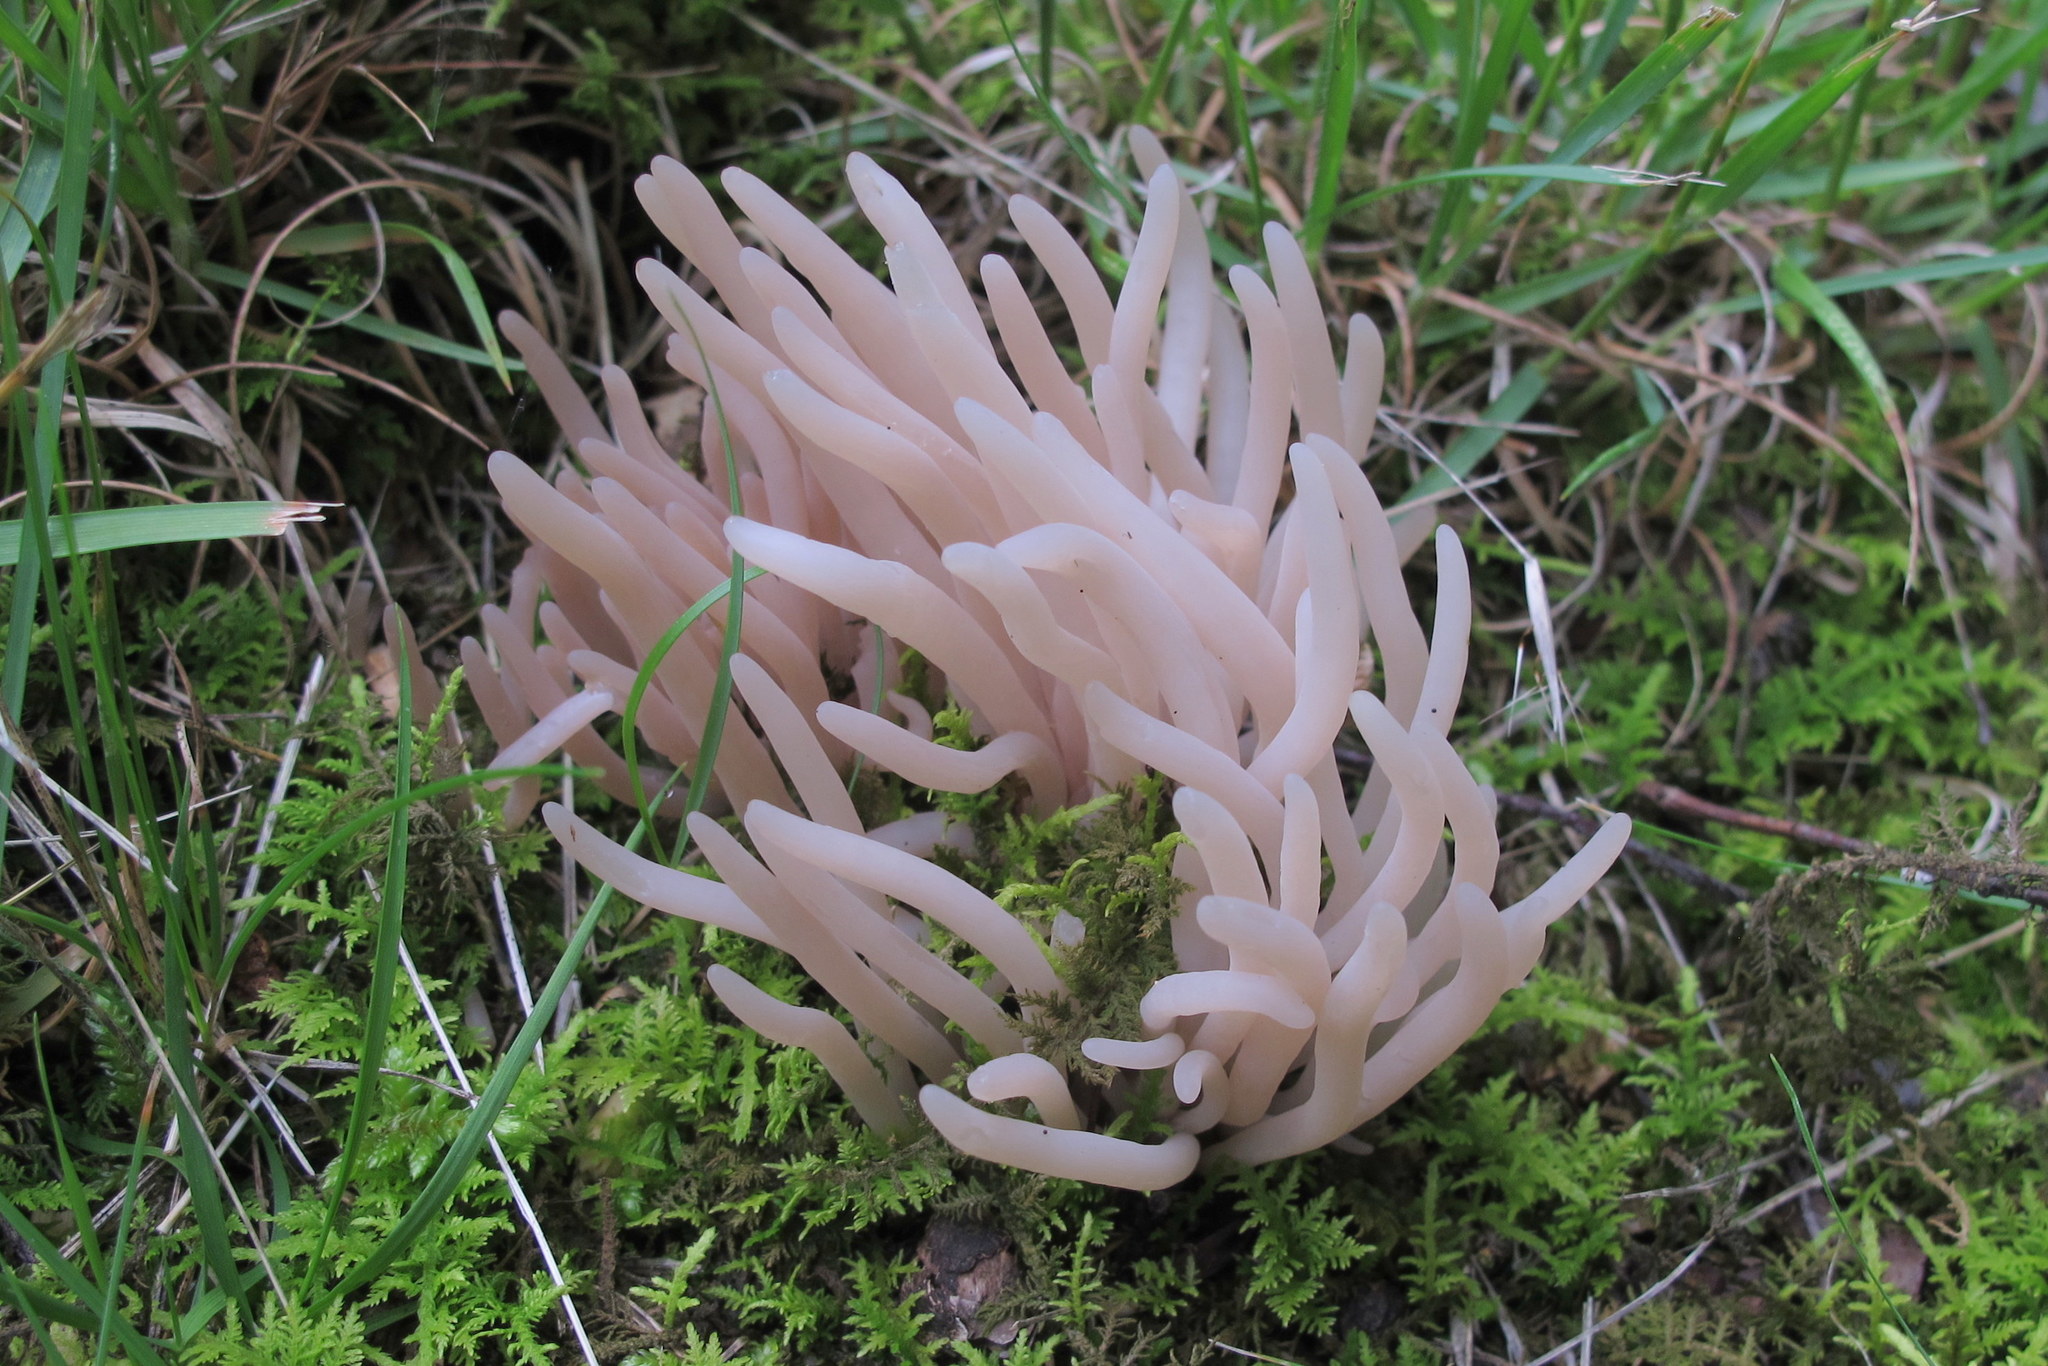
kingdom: Fungi
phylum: Basidiomycota
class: Agaricomycetes
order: Agaricales
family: Clavariaceae
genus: Clavaria
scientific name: Clavaria fumosa
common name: Smoky spindles
